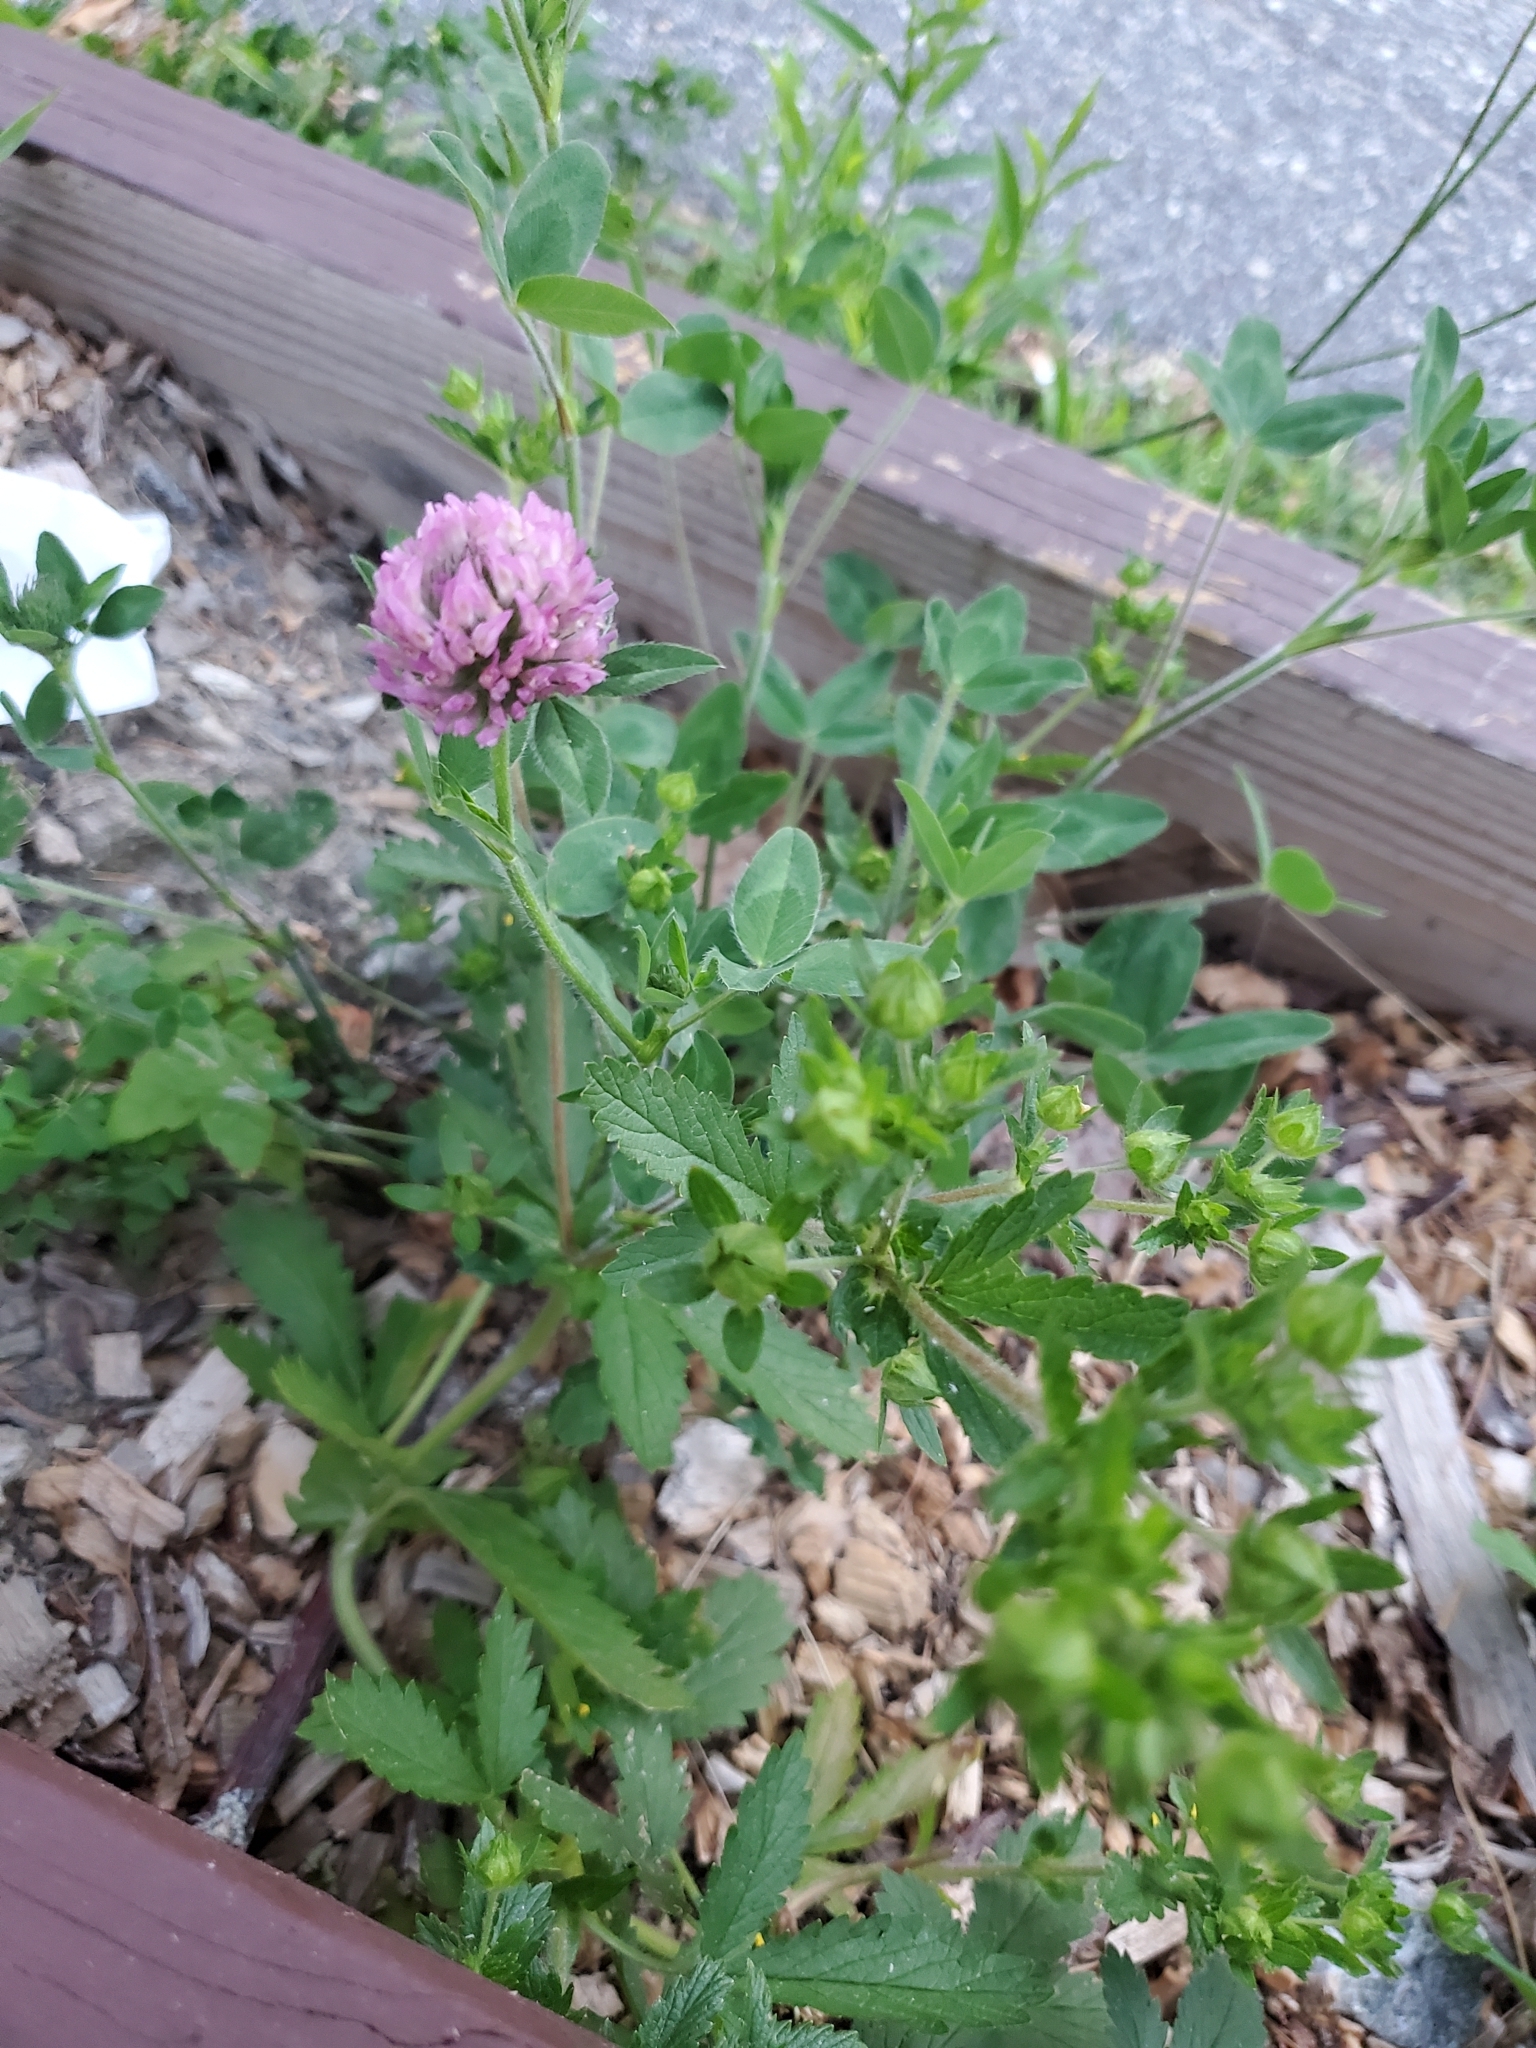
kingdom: Plantae
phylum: Tracheophyta
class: Magnoliopsida
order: Fabales
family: Fabaceae
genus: Trifolium
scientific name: Trifolium pratense
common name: Red clover
